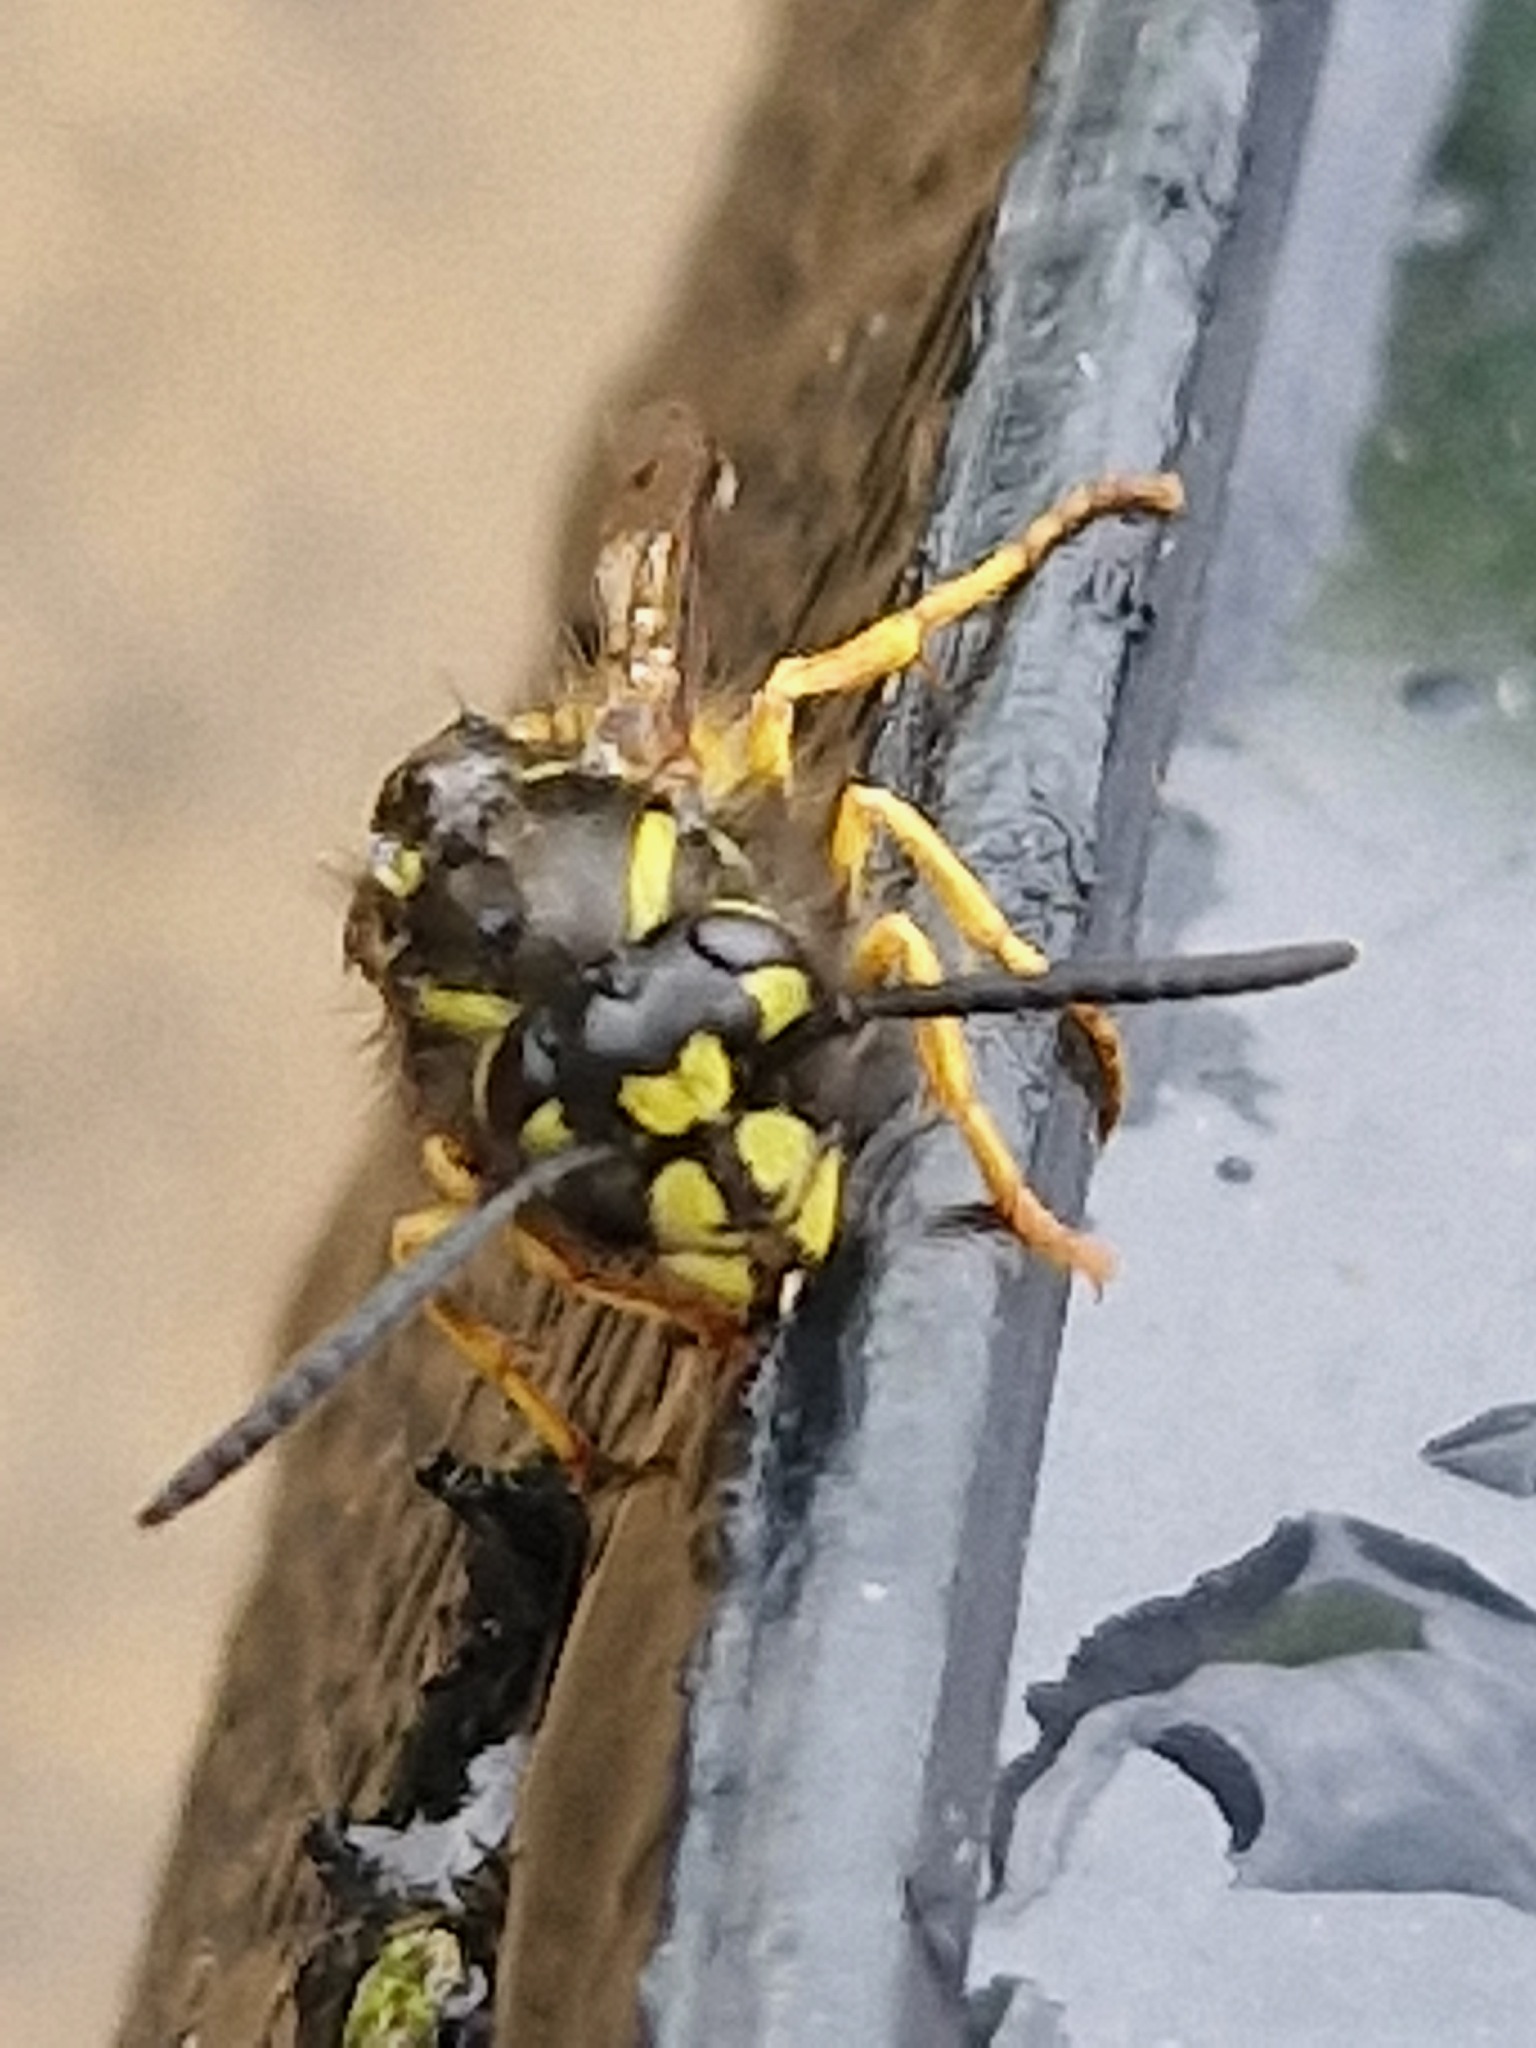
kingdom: Animalia
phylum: Arthropoda
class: Insecta
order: Hymenoptera
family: Vespidae
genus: Vespula
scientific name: Vespula vulgaris
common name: Common wasp
